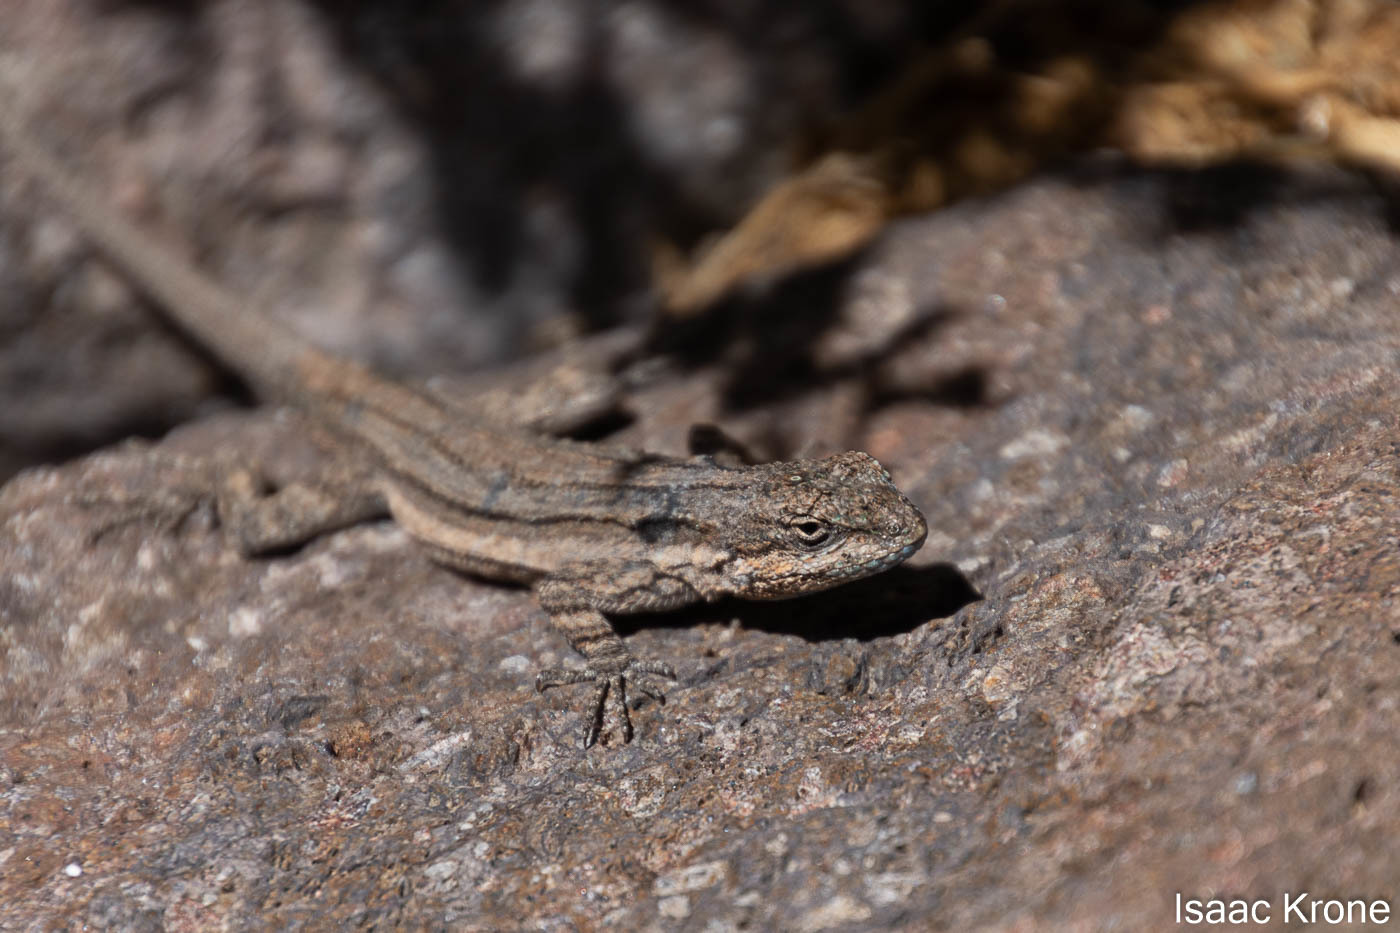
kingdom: Animalia
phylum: Chordata
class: Squamata
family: Phrynosomatidae
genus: Urosaurus
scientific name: Urosaurus ornatus
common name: Ornate tree lizard
